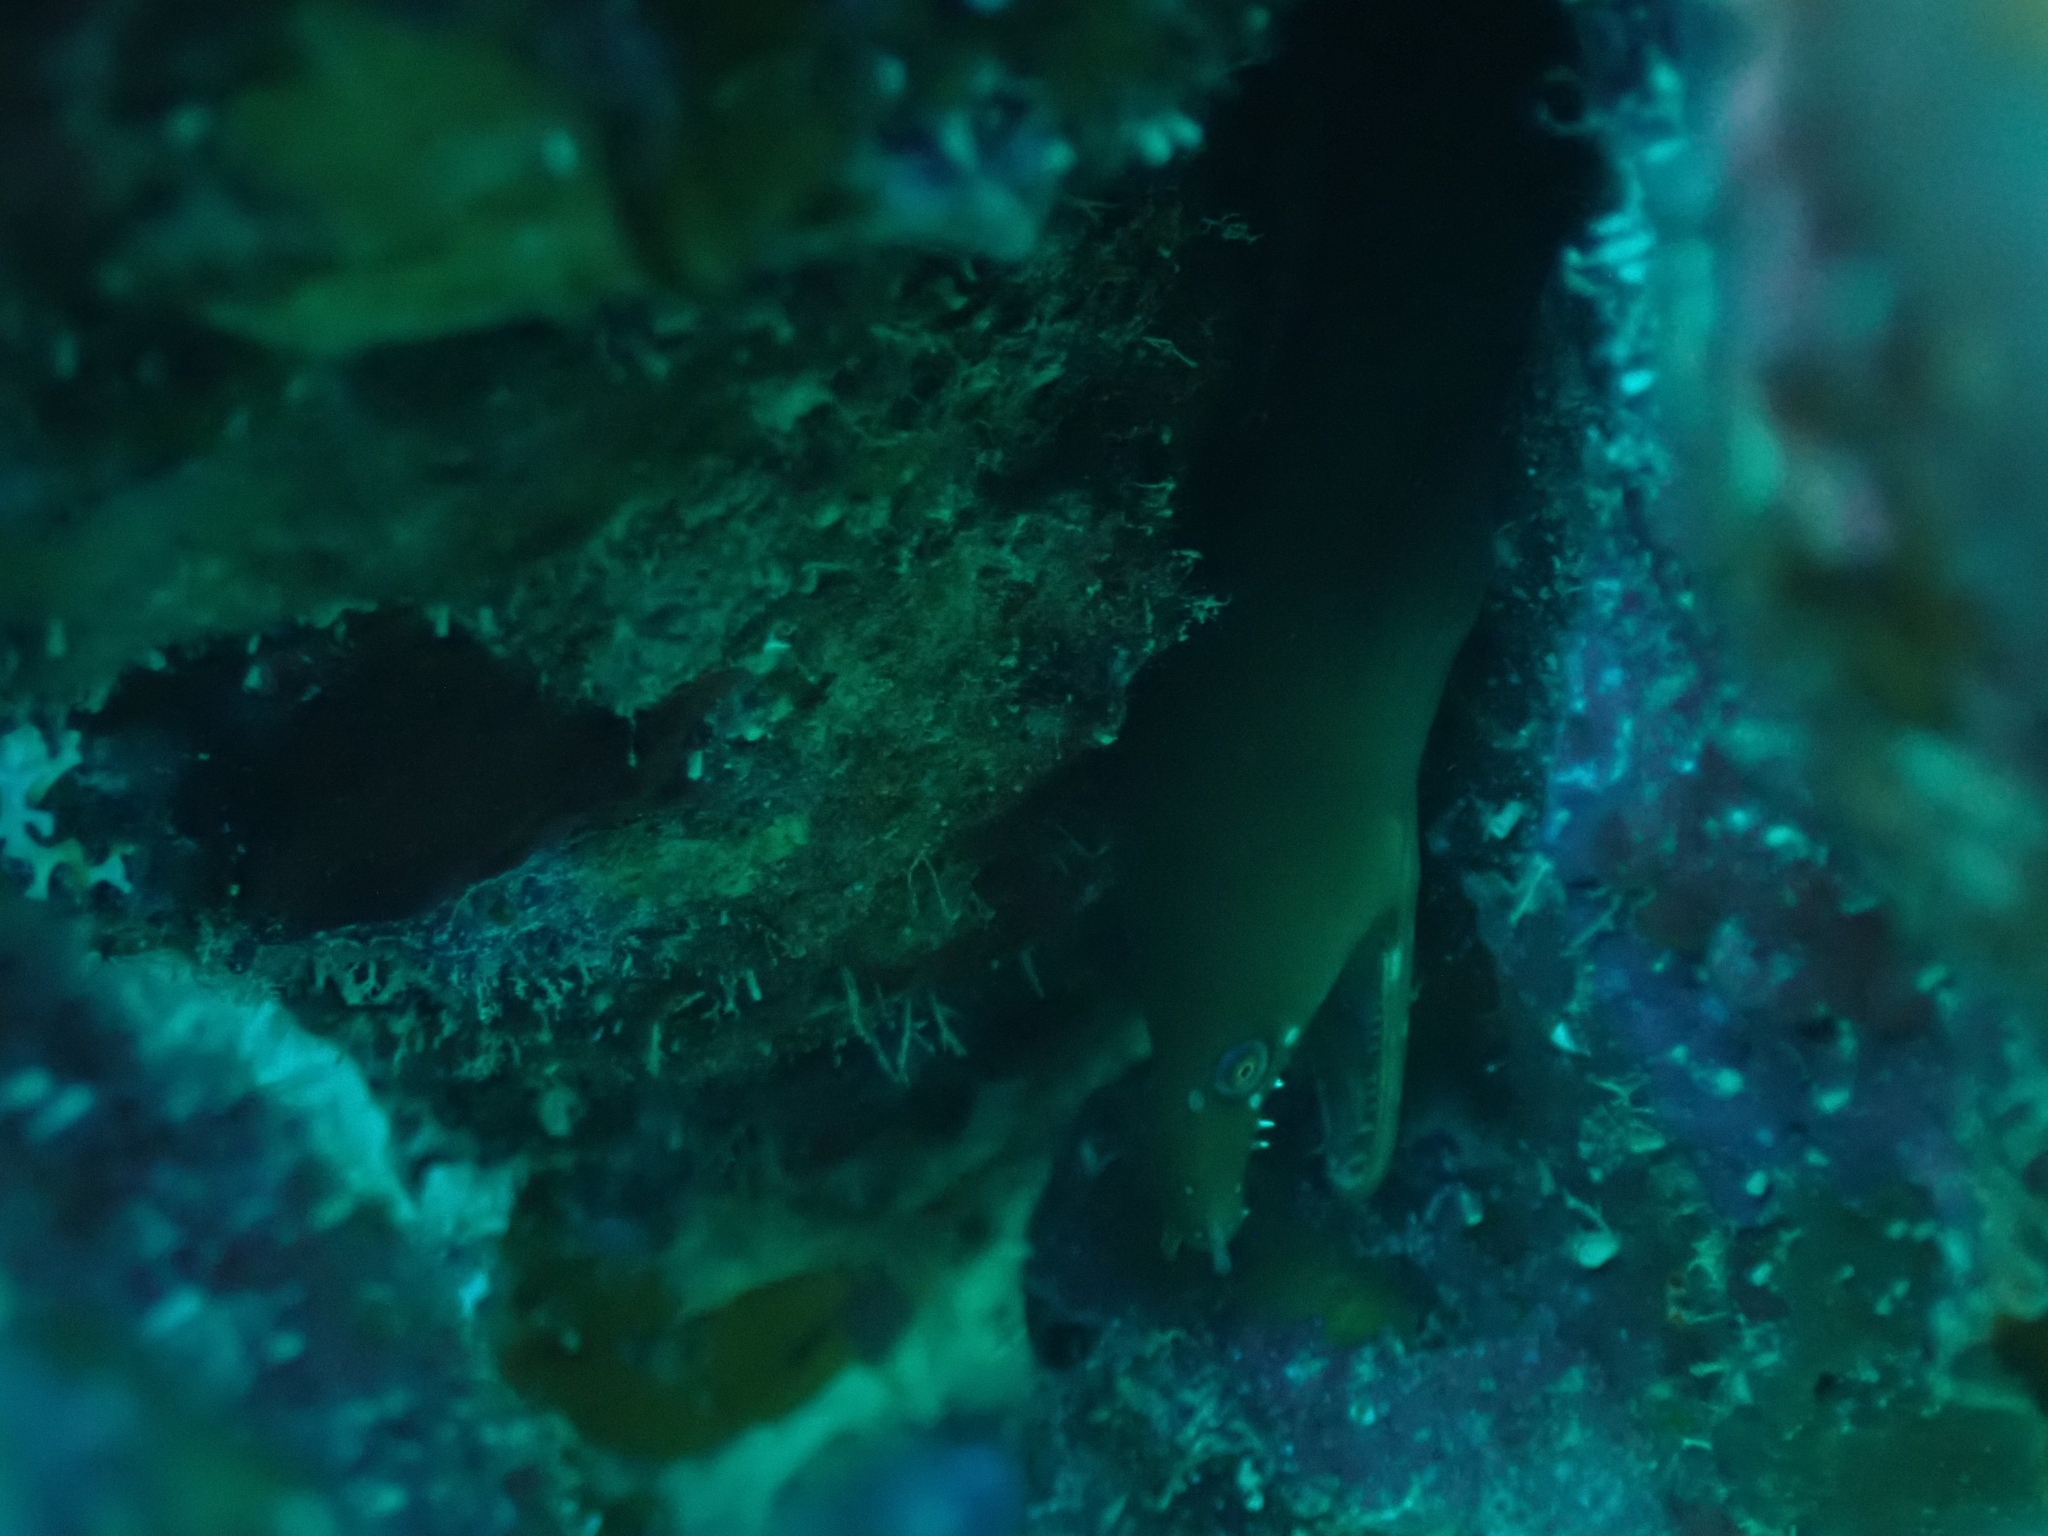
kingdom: Animalia
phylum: Chordata
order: Anguilliformes
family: Muraenidae
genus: Enchelycore
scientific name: Enchelycore carychroa
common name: Chestnut moray
